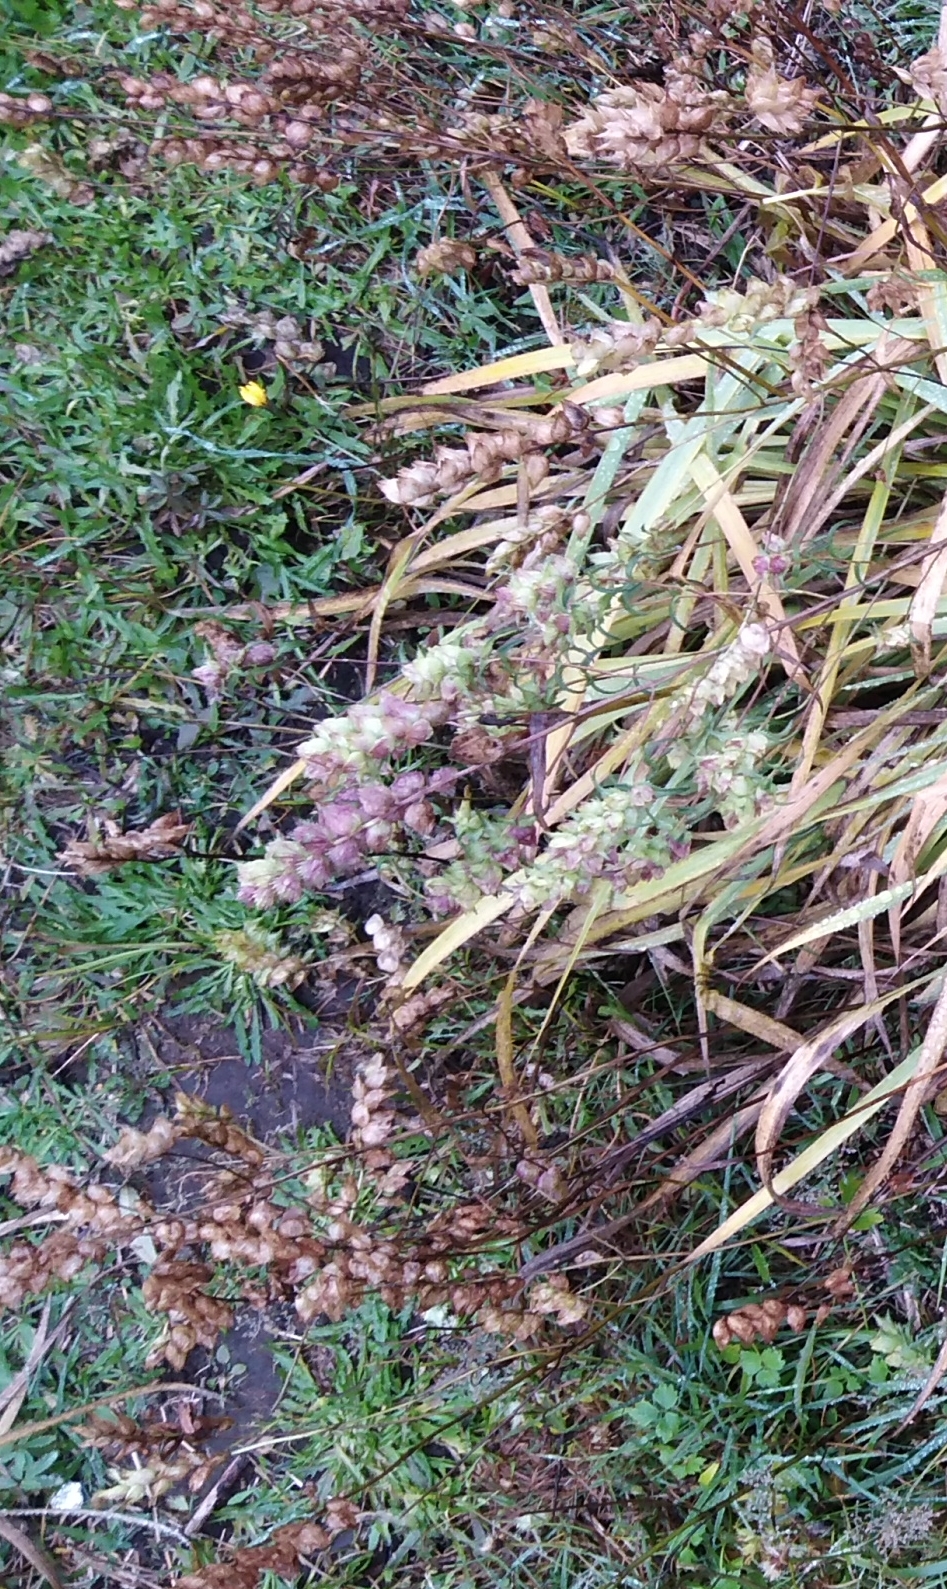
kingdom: Plantae
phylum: Tracheophyta
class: Magnoliopsida
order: Lamiales
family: Orobanchaceae
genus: Rhinanthus
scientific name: Rhinanthus minor
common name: Yellow-rattle
